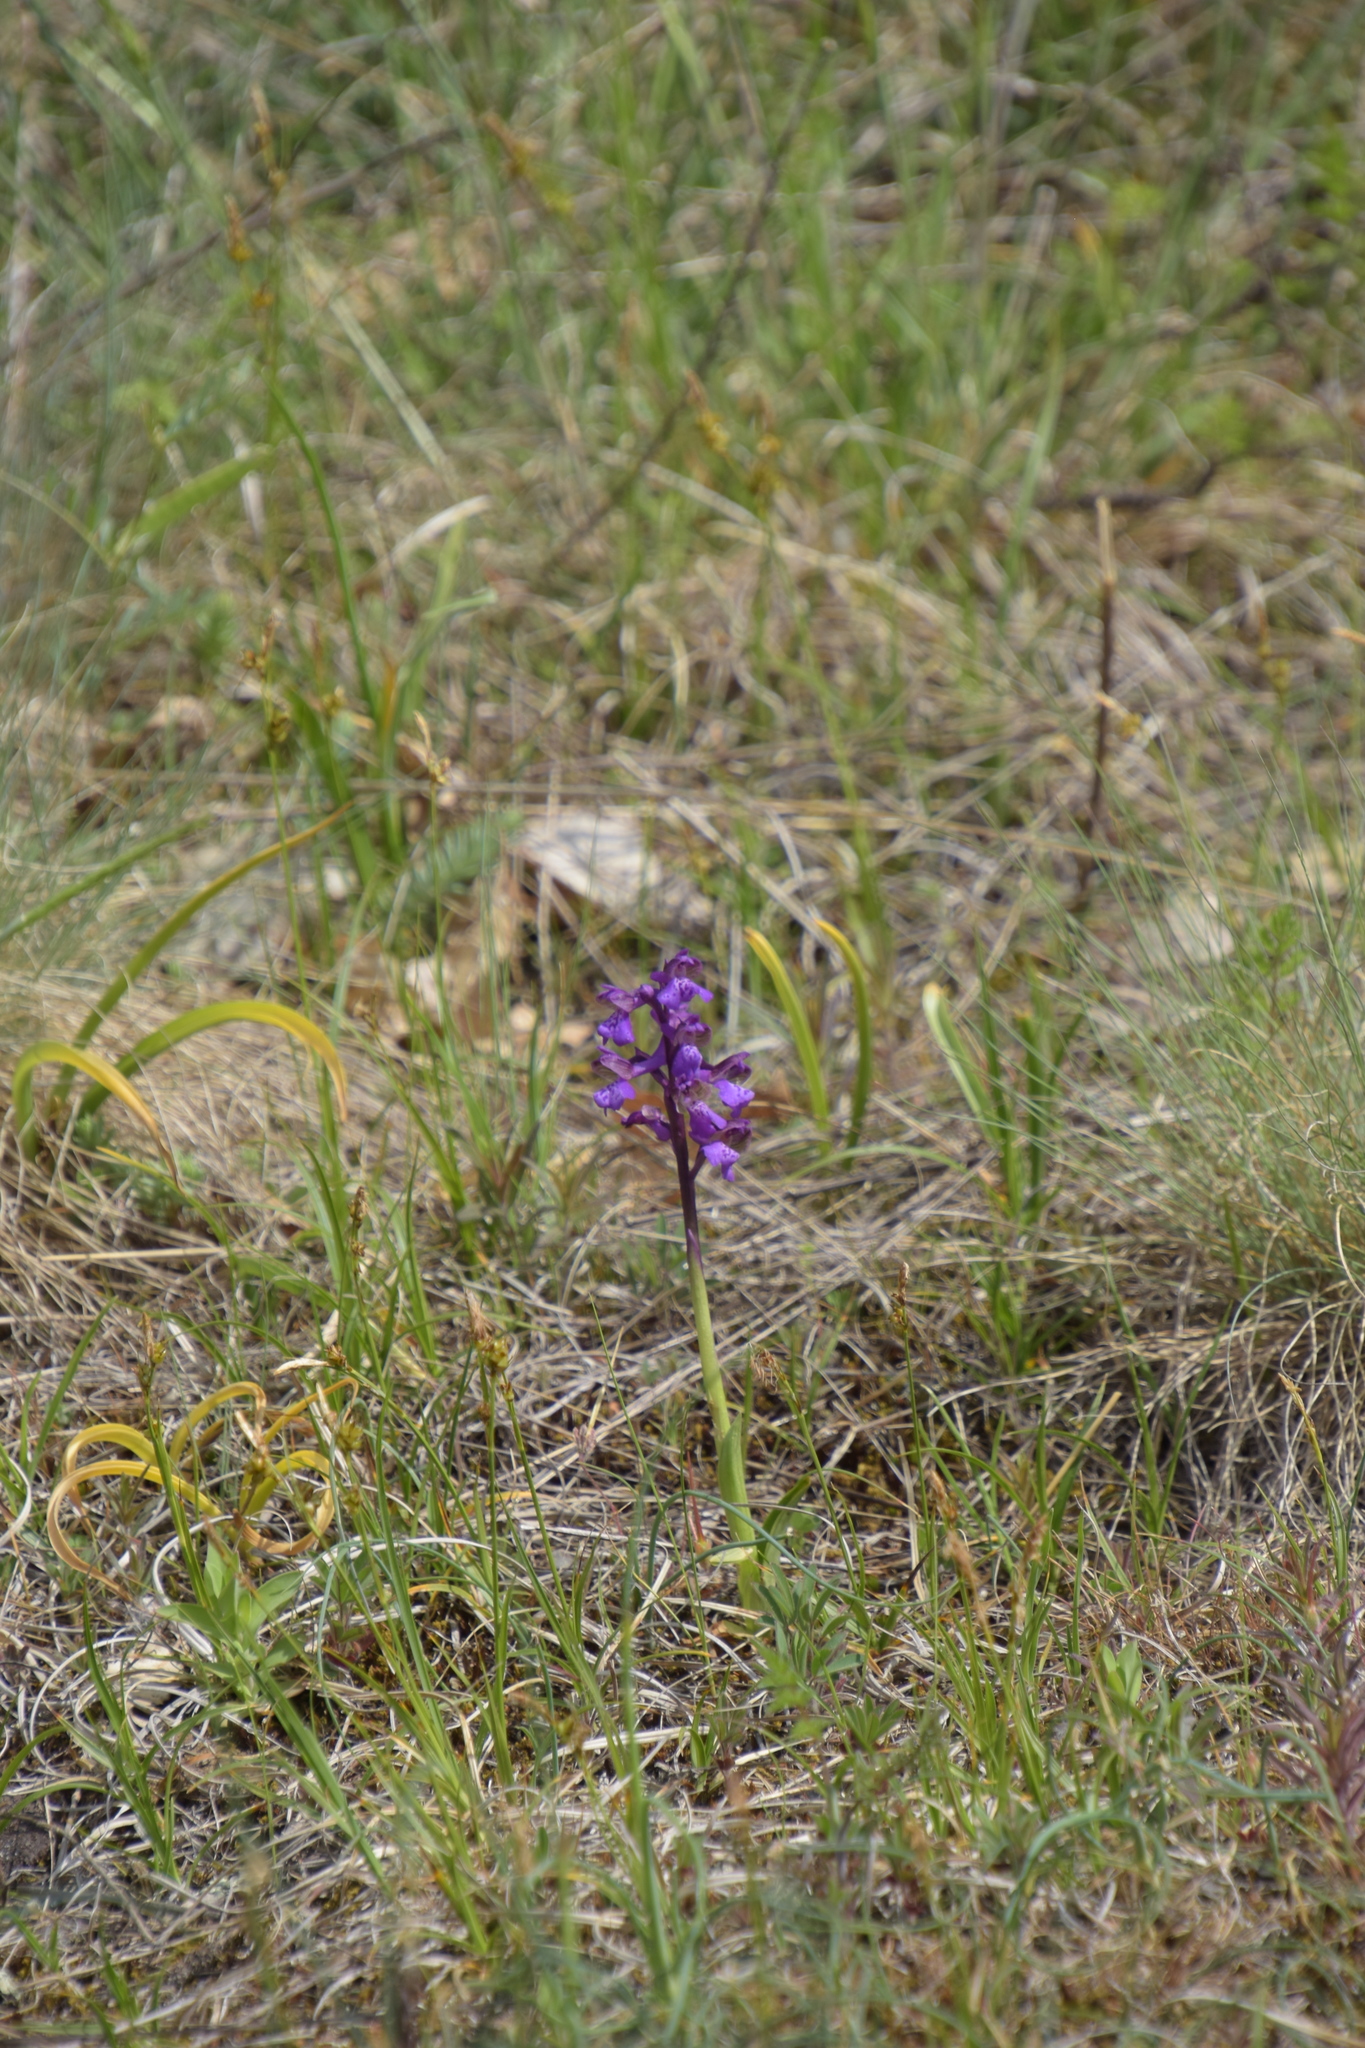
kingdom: Plantae
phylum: Tracheophyta
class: Liliopsida
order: Asparagales
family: Orchidaceae
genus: Anacamptis
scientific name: Anacamptis morio
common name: Green-winged orchid
